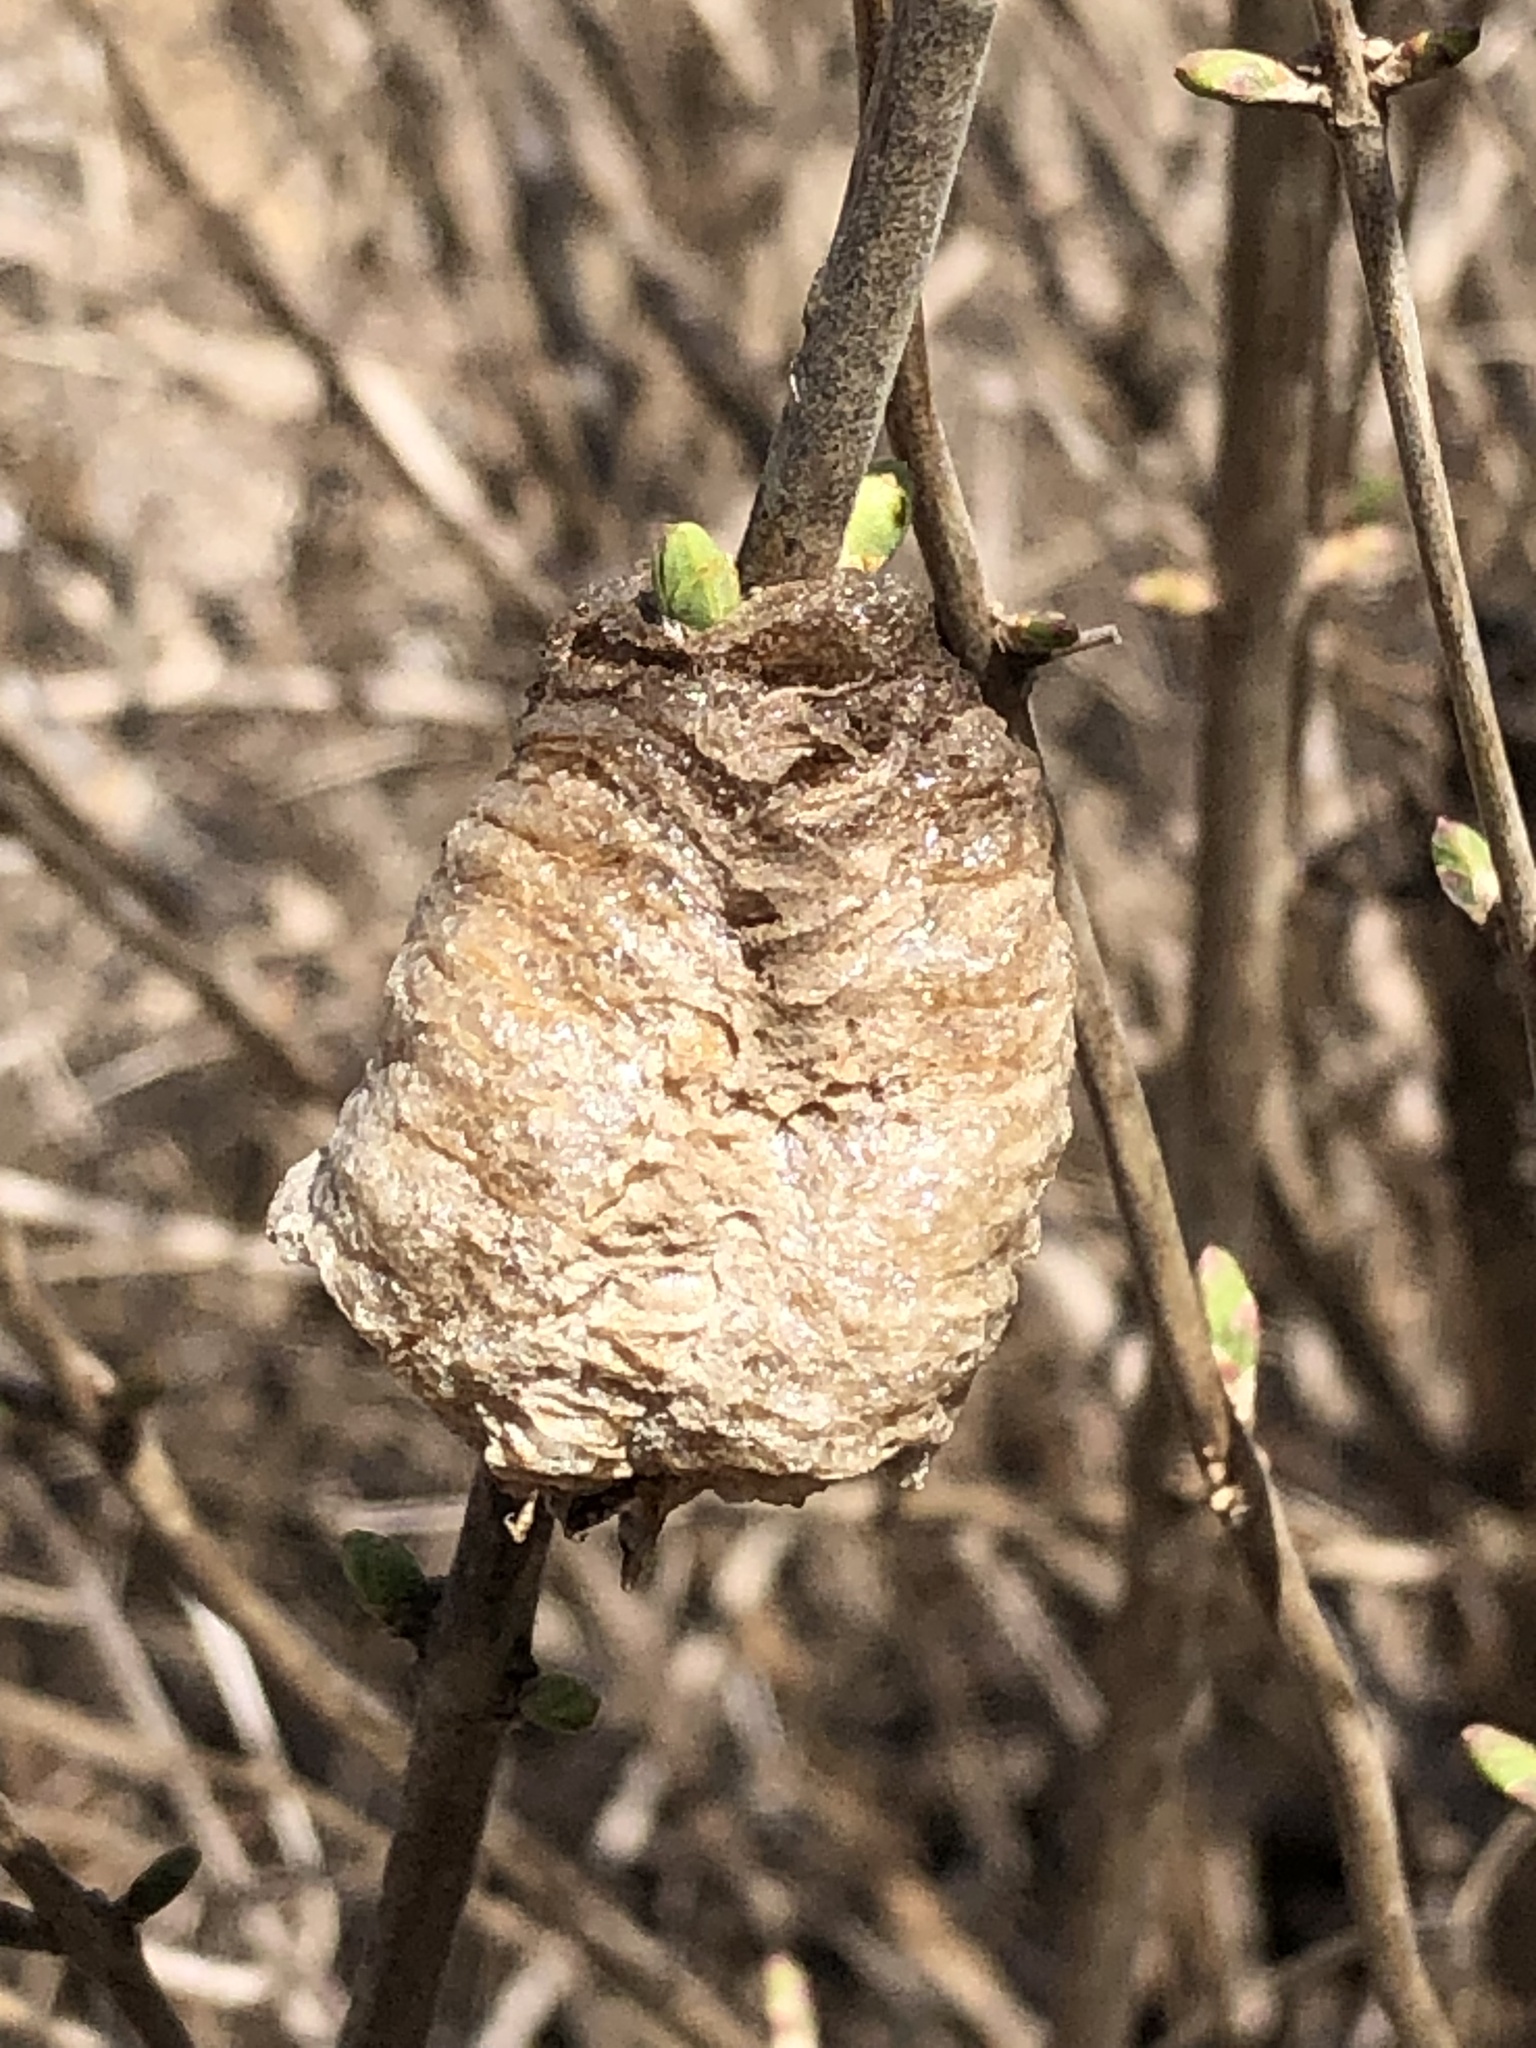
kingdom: Animalia
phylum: Arthropoda
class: Insecta
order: Mantodea
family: Mantidae
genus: Tenodera
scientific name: Tenodera sinensis
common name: Chinese mantis
